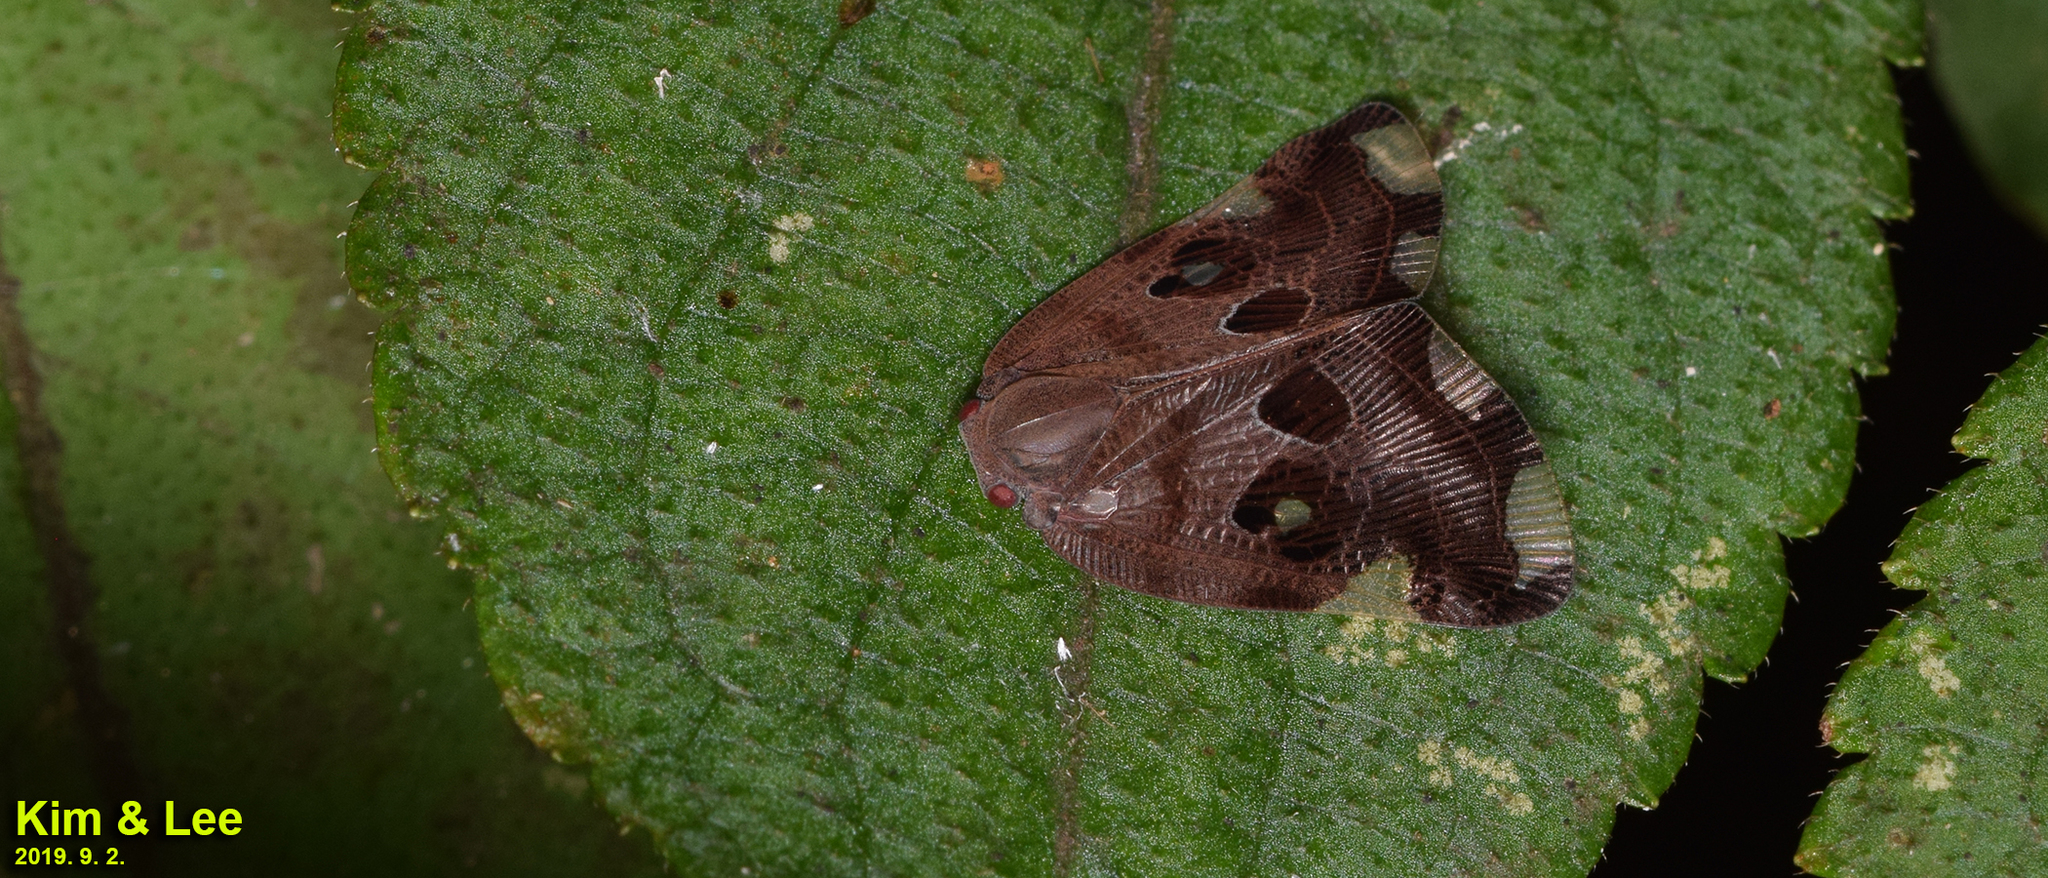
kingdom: Animalia
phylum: Arthropoda
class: Insecta
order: Hemiptera
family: Ricaniidae
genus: Ricania
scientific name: Ricania speculum
